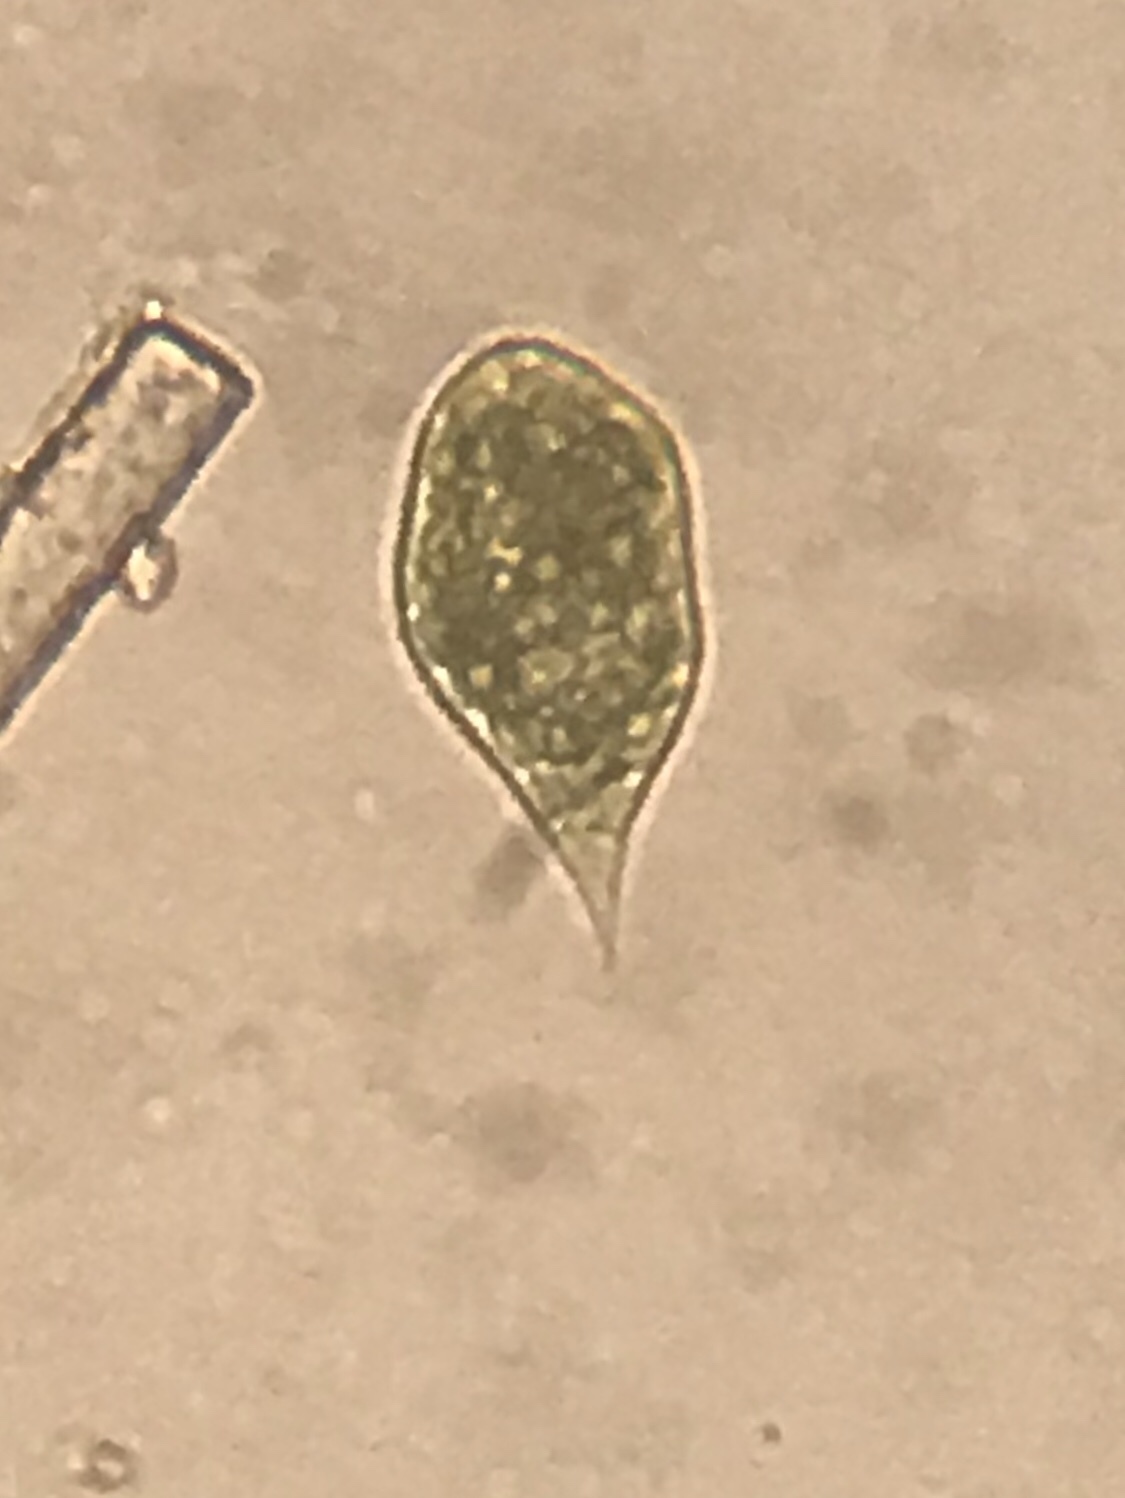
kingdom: Protozoa
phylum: Euglenozoa
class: Euglenoidea
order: Euglenida
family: Euglenaceae
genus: Euglena
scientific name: Euglena variabilis
